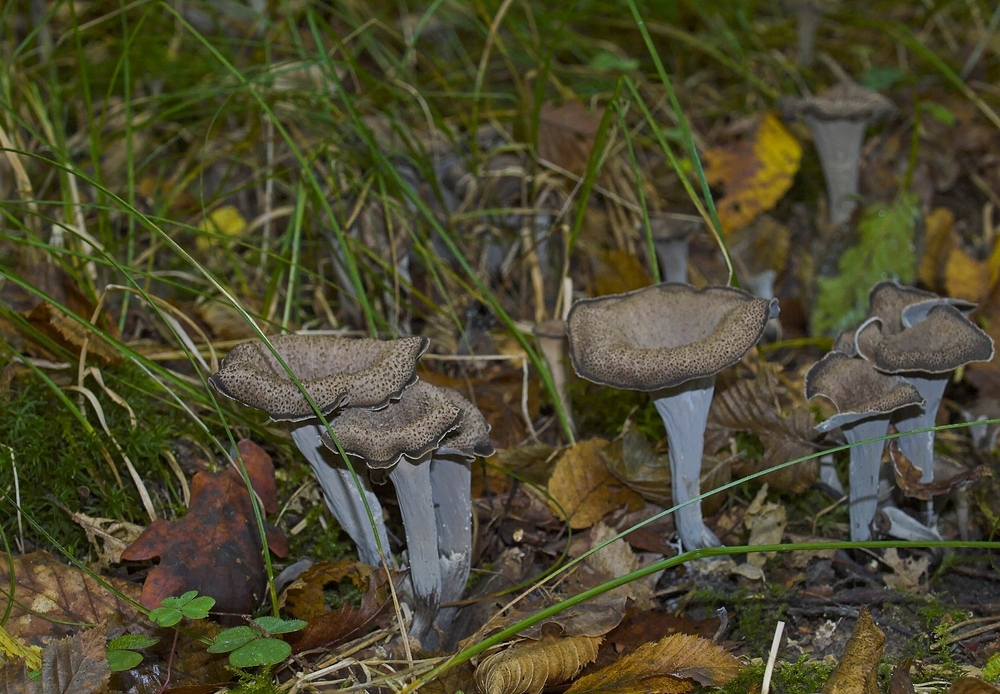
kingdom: Fungi
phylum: Basidiomycota
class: Agaricomycetes
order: Cantharellales
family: Hydnaceae
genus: Craterellus
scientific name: Craterellus cornucopioides
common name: Horn of plenty
